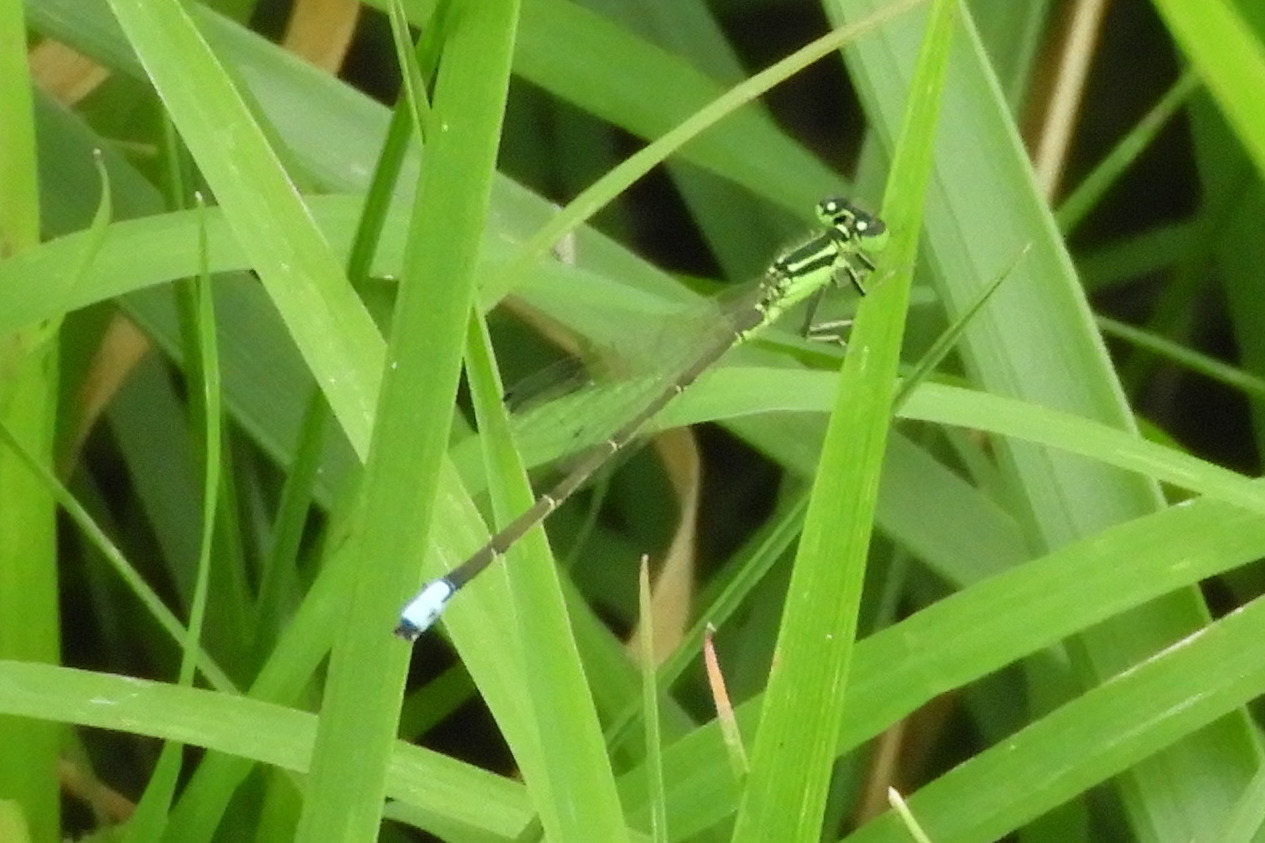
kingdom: Animalia
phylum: Arthropoda
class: Insecta
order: Odonata
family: Coenagrionidae
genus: Ischnura
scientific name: Ischnura verticalis
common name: Eastern forktail
